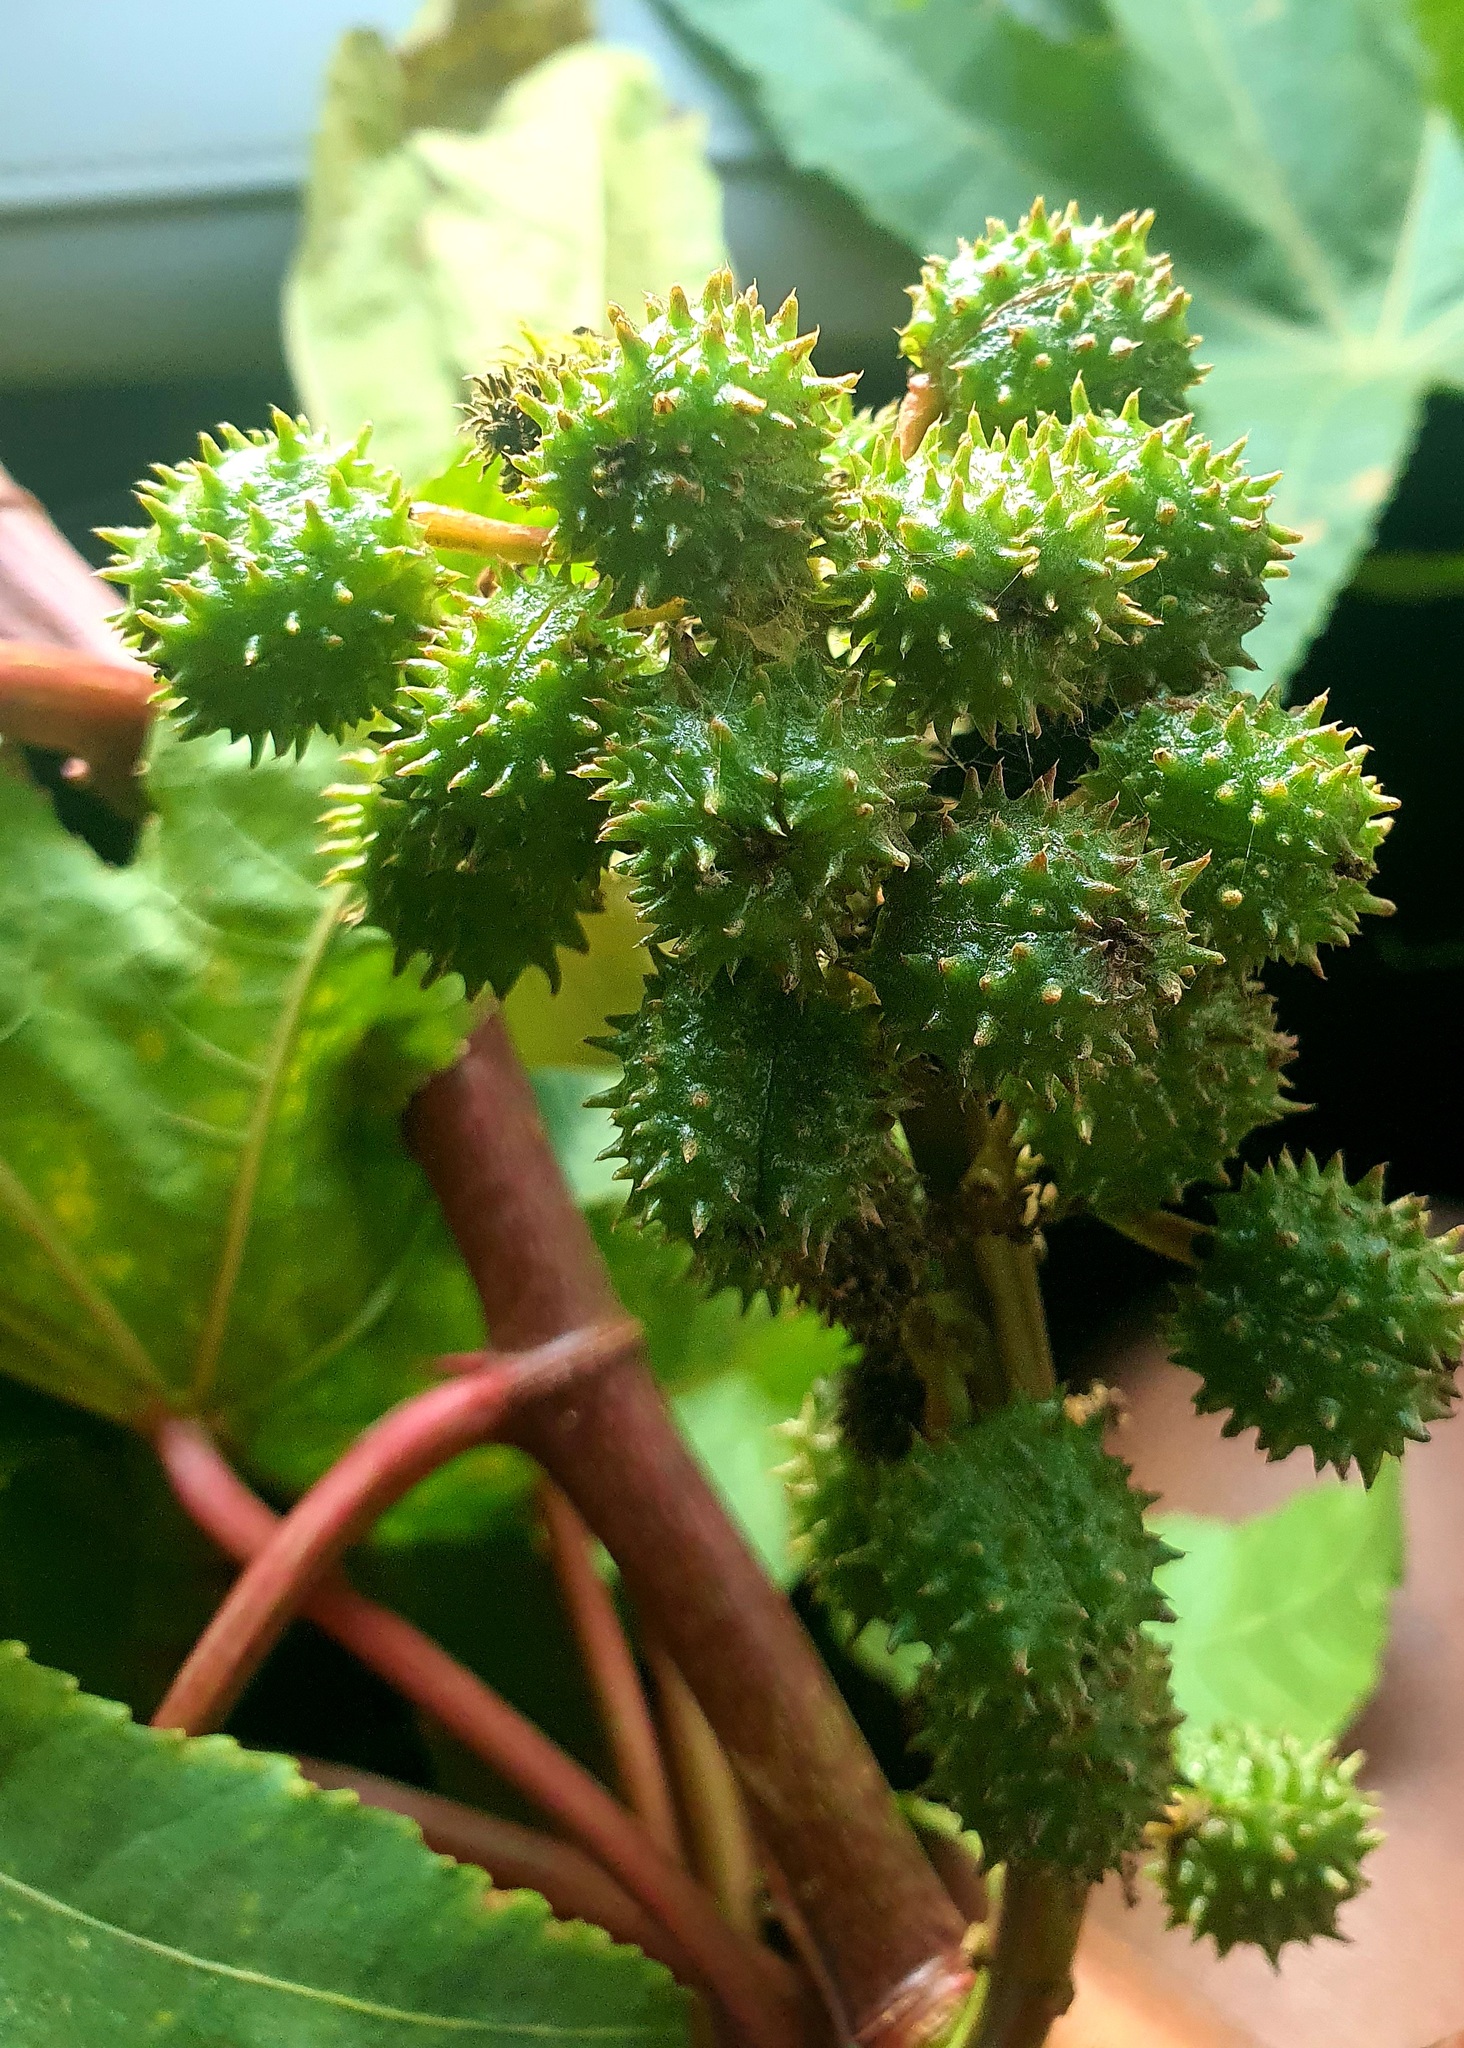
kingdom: Plantae
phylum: Tracheophyta
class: Magnoliopsida
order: Malpighiales
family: Euphorbiaceae
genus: Ricinus
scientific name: Ricinus communis
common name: Castor-oil-plant
